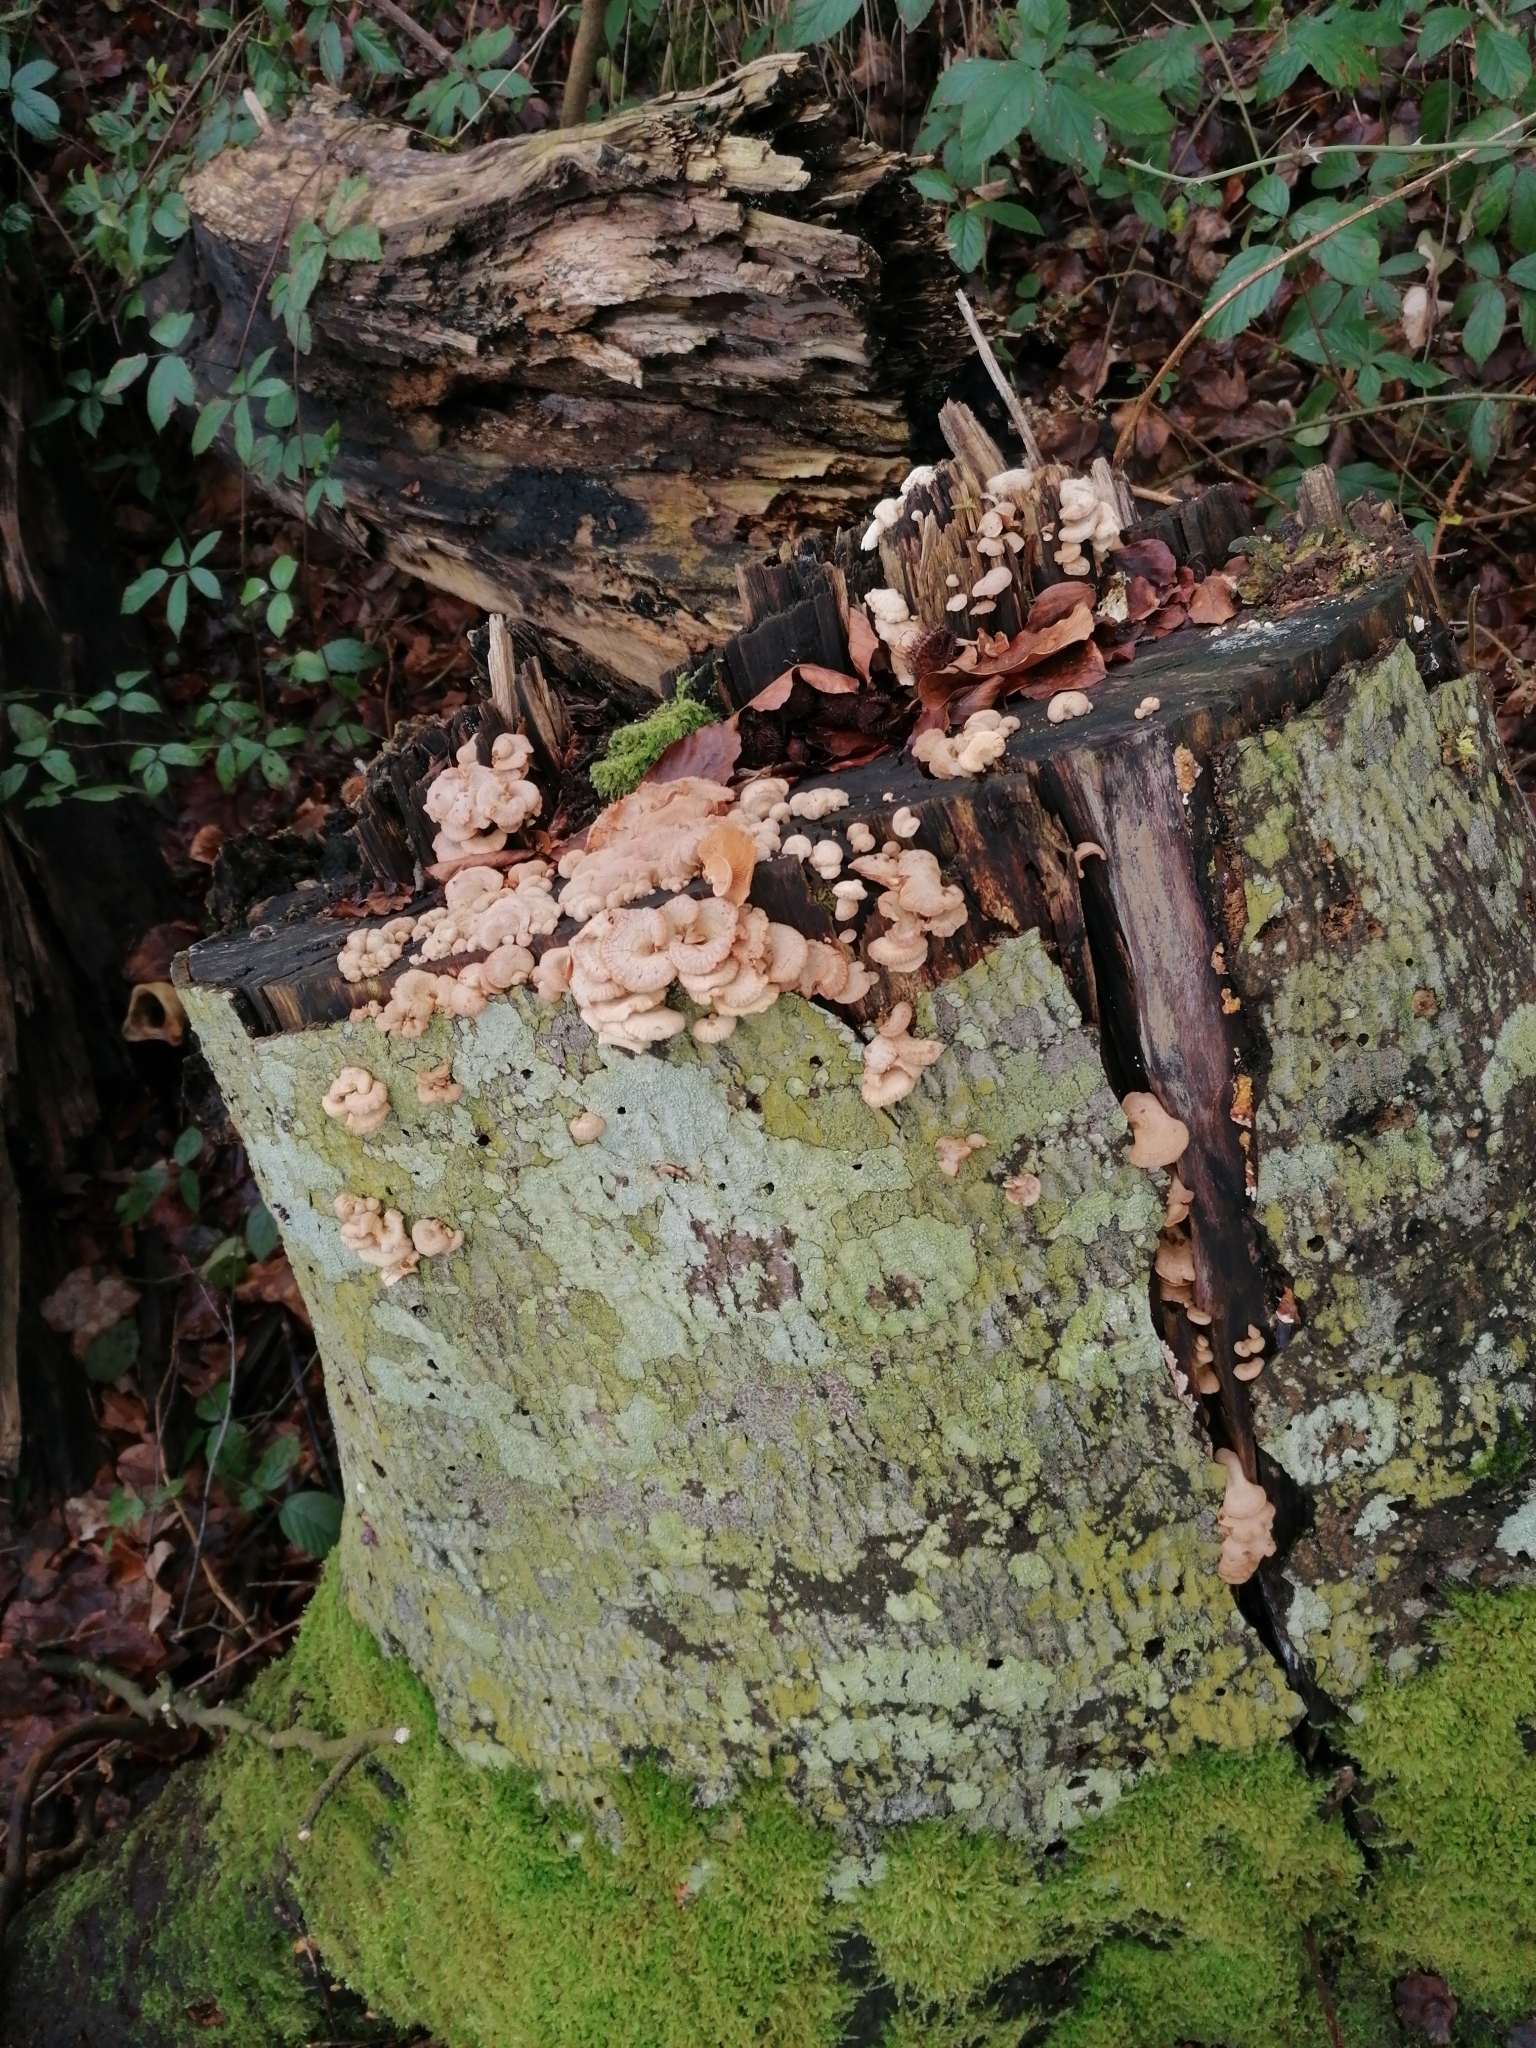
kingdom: Fungi
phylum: Basidiomycota
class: Agaricomycetes
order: Agaricales
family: Mycenaceae
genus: Panellus
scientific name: Panellus stipticus
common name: Bitter oysterling
